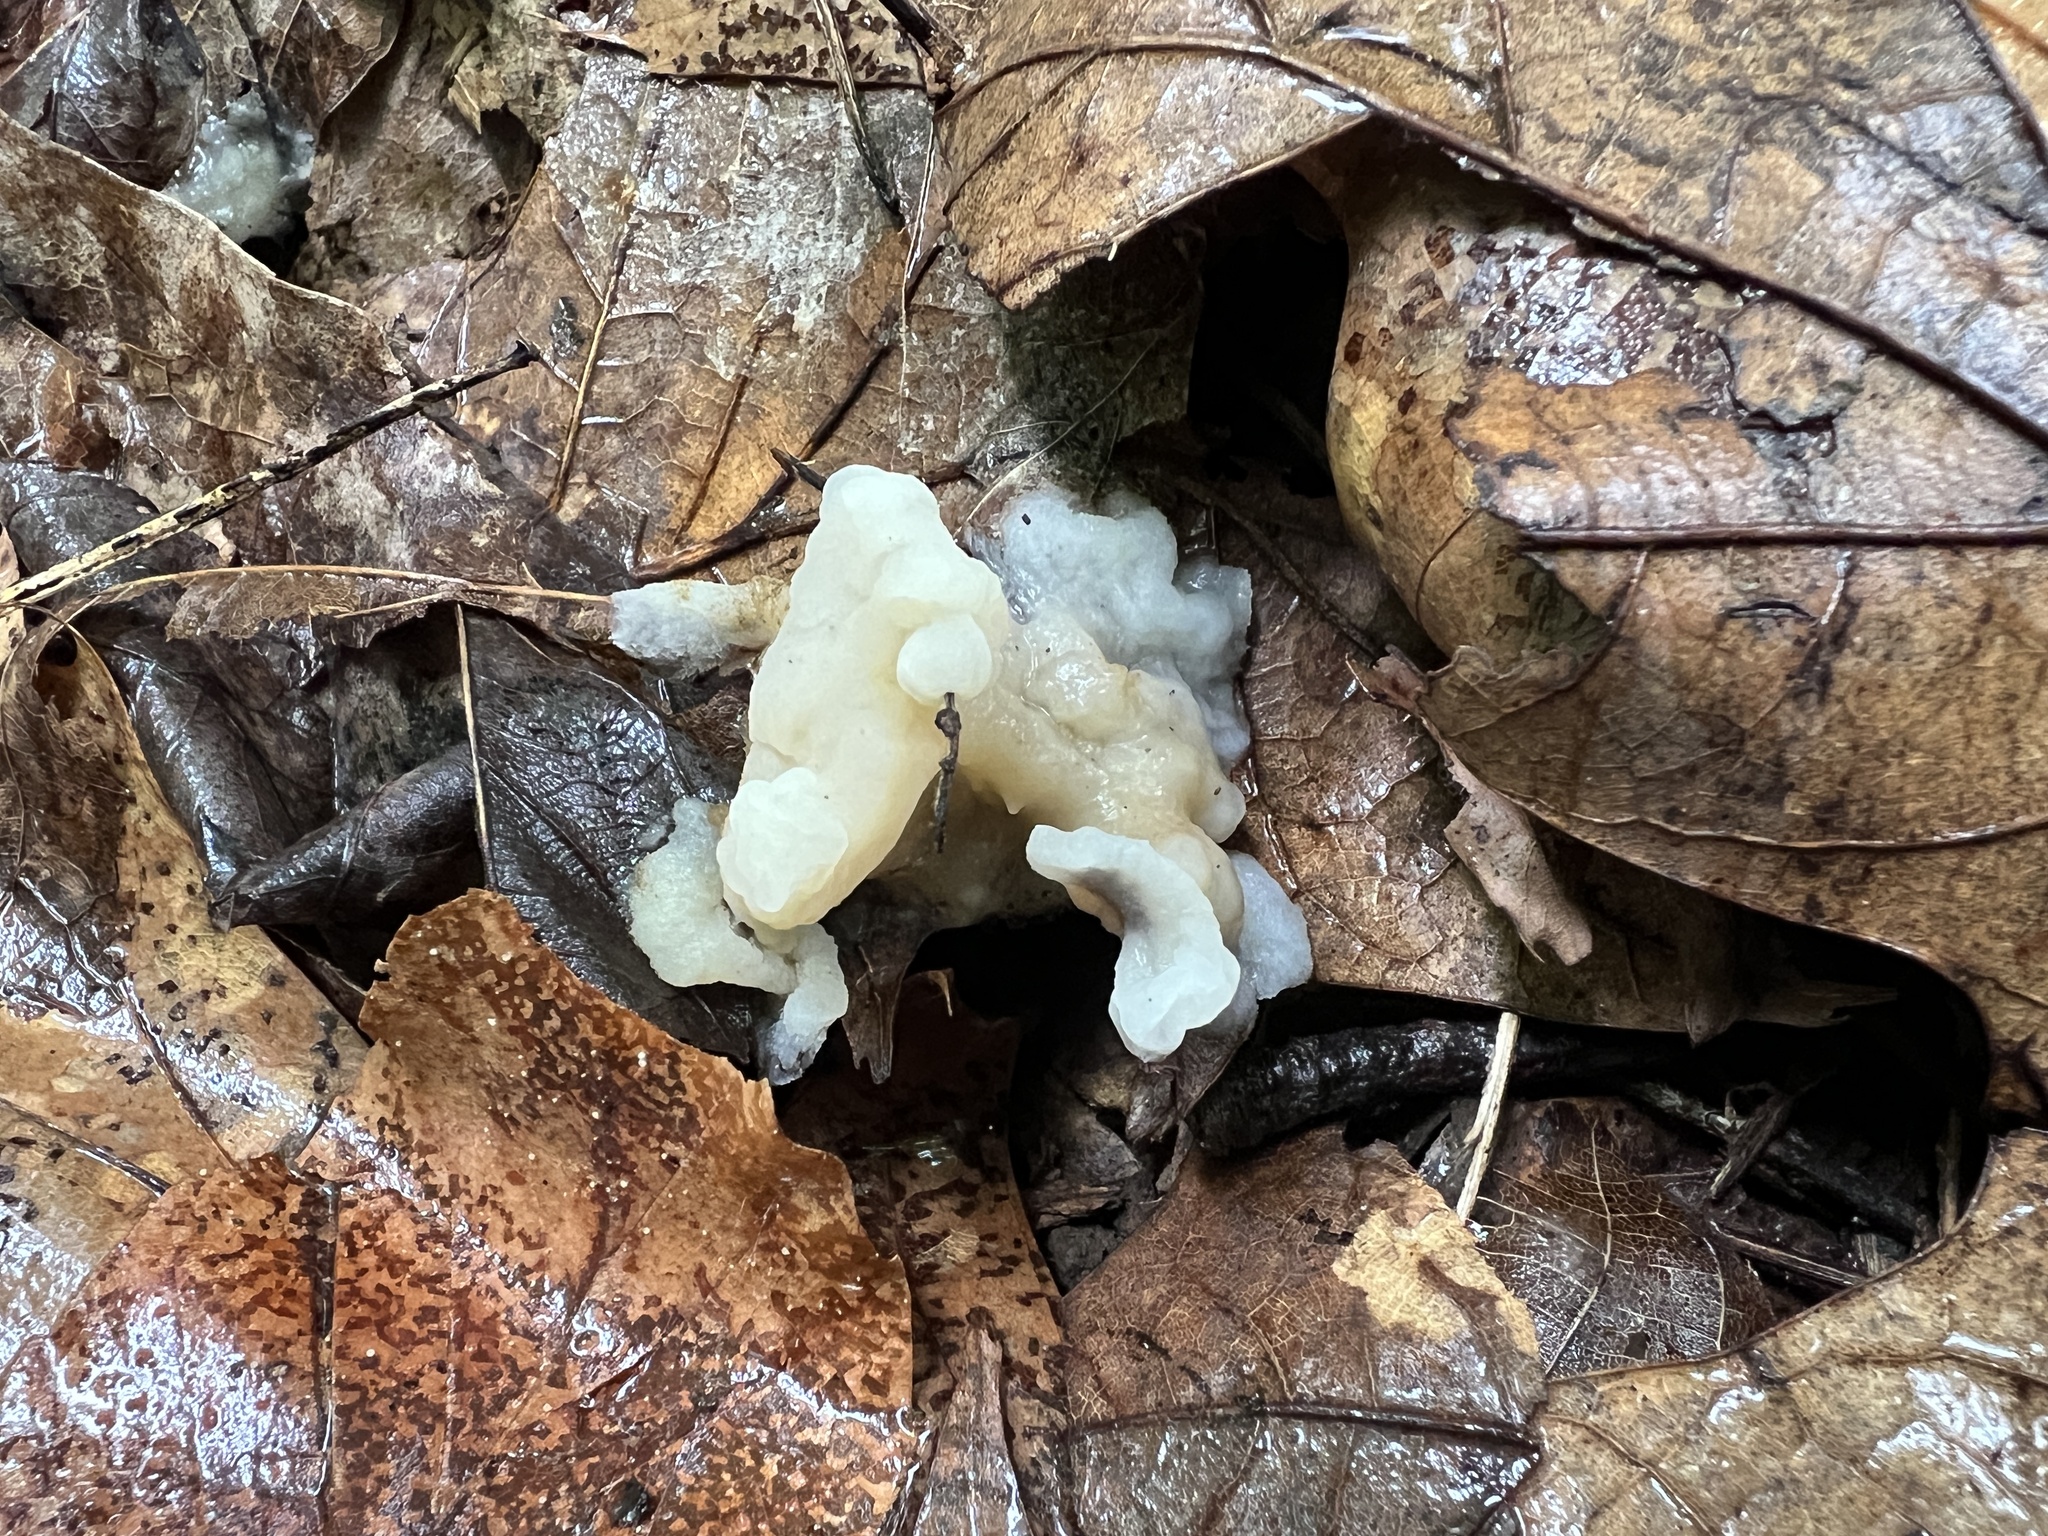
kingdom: Fungi
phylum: Basidiomycota
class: Agaricomycetes
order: Sebacinales
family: Sebacinaceae
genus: Helvellosebacina
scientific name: Helvellosebacina concrescens
